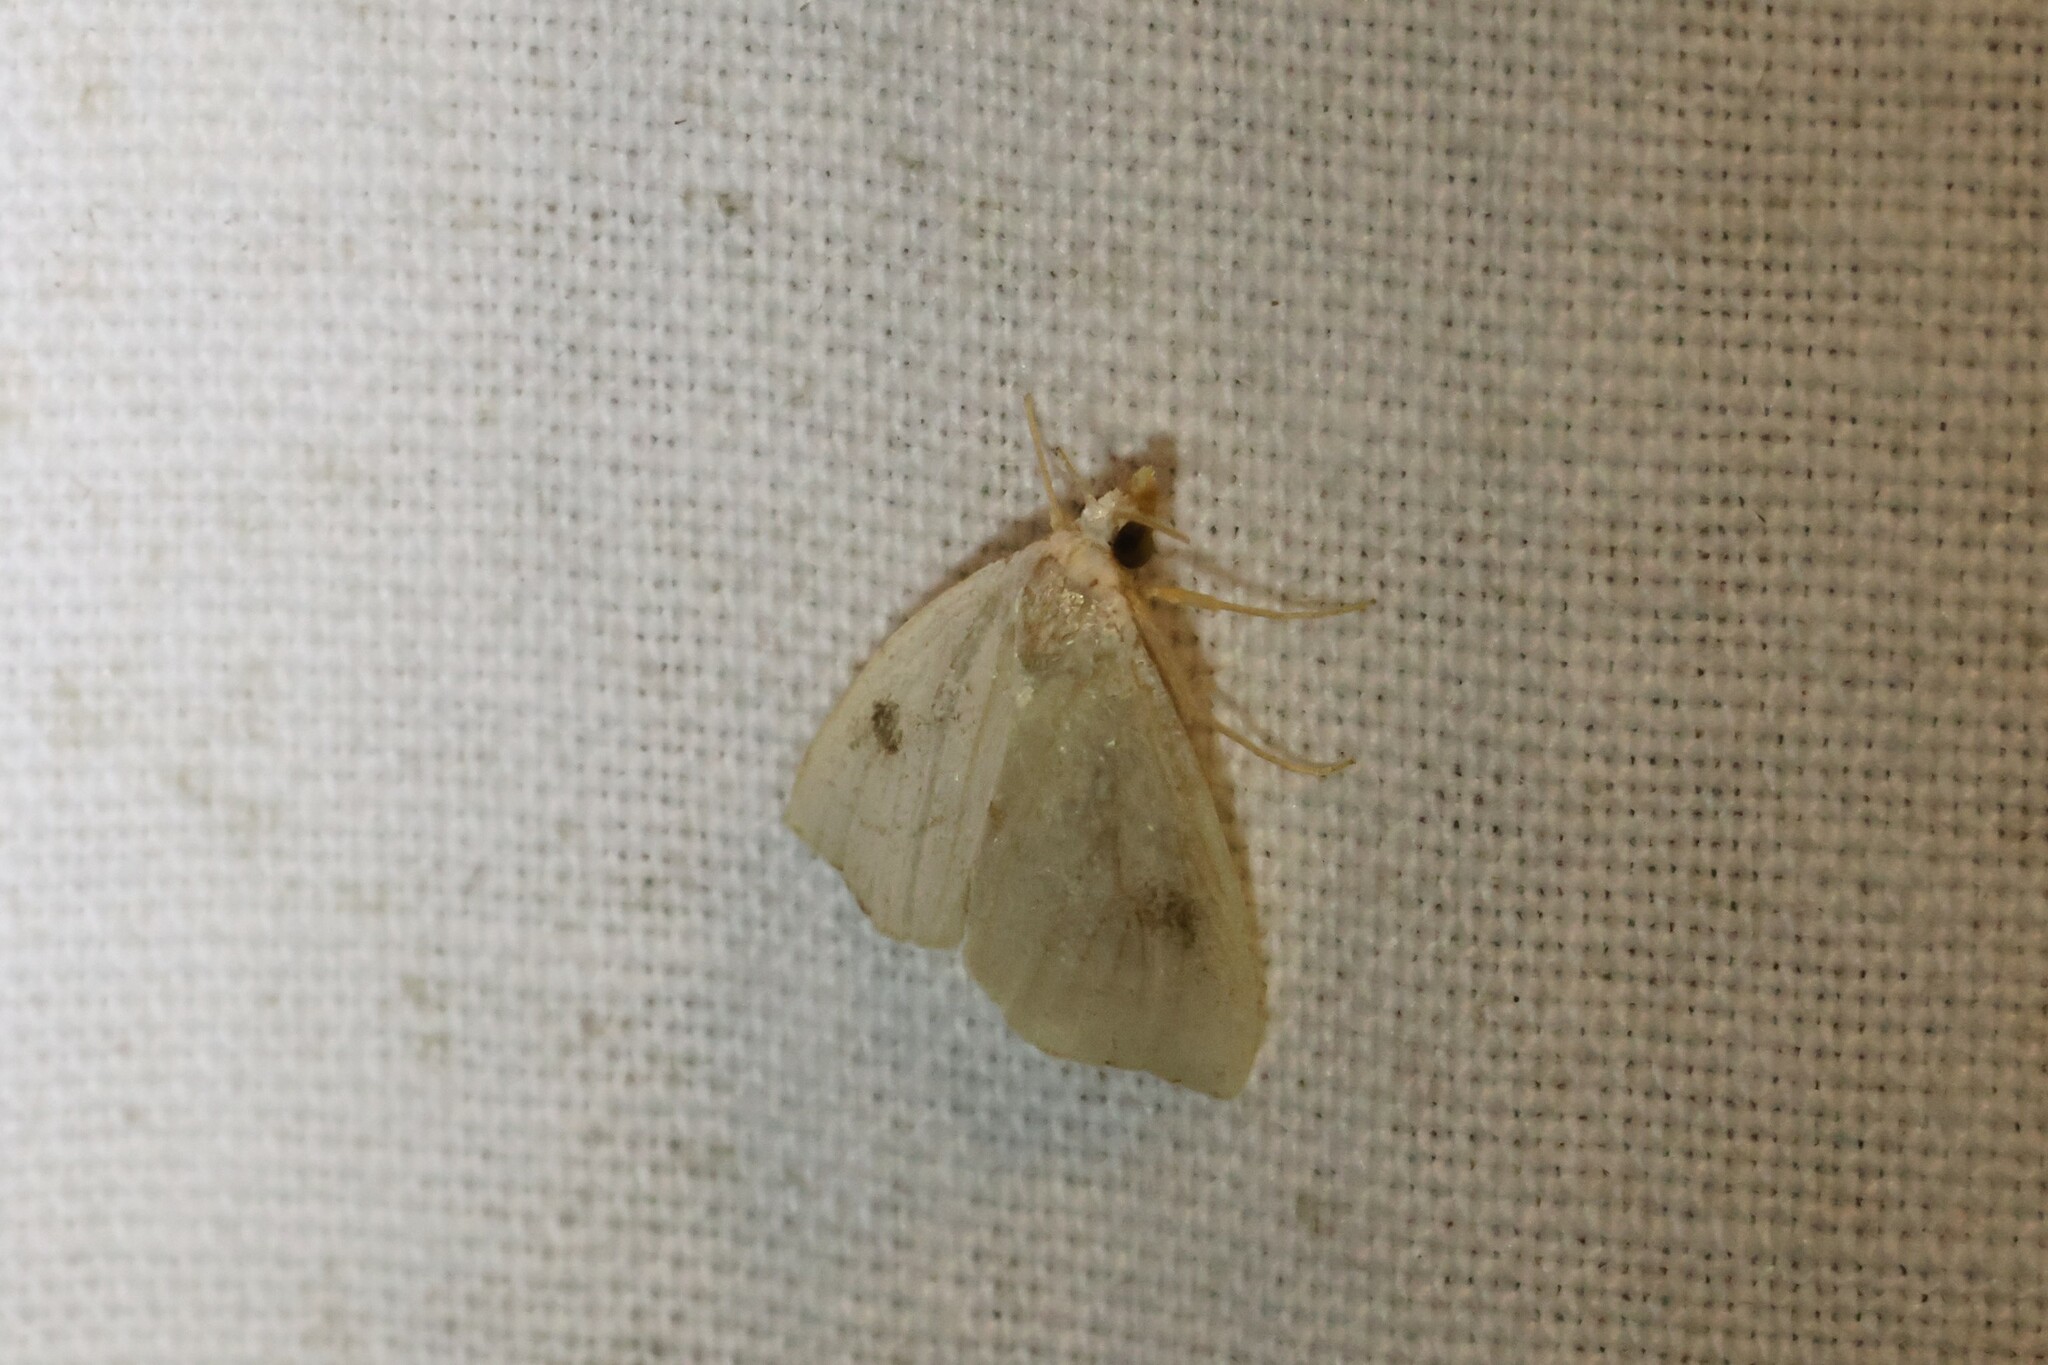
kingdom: Animalia
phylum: Arthropoda
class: Insecta
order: Lepidoptera
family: Erebidae
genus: Rivula
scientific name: Rivula propinqualis
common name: Spotted grass moth
